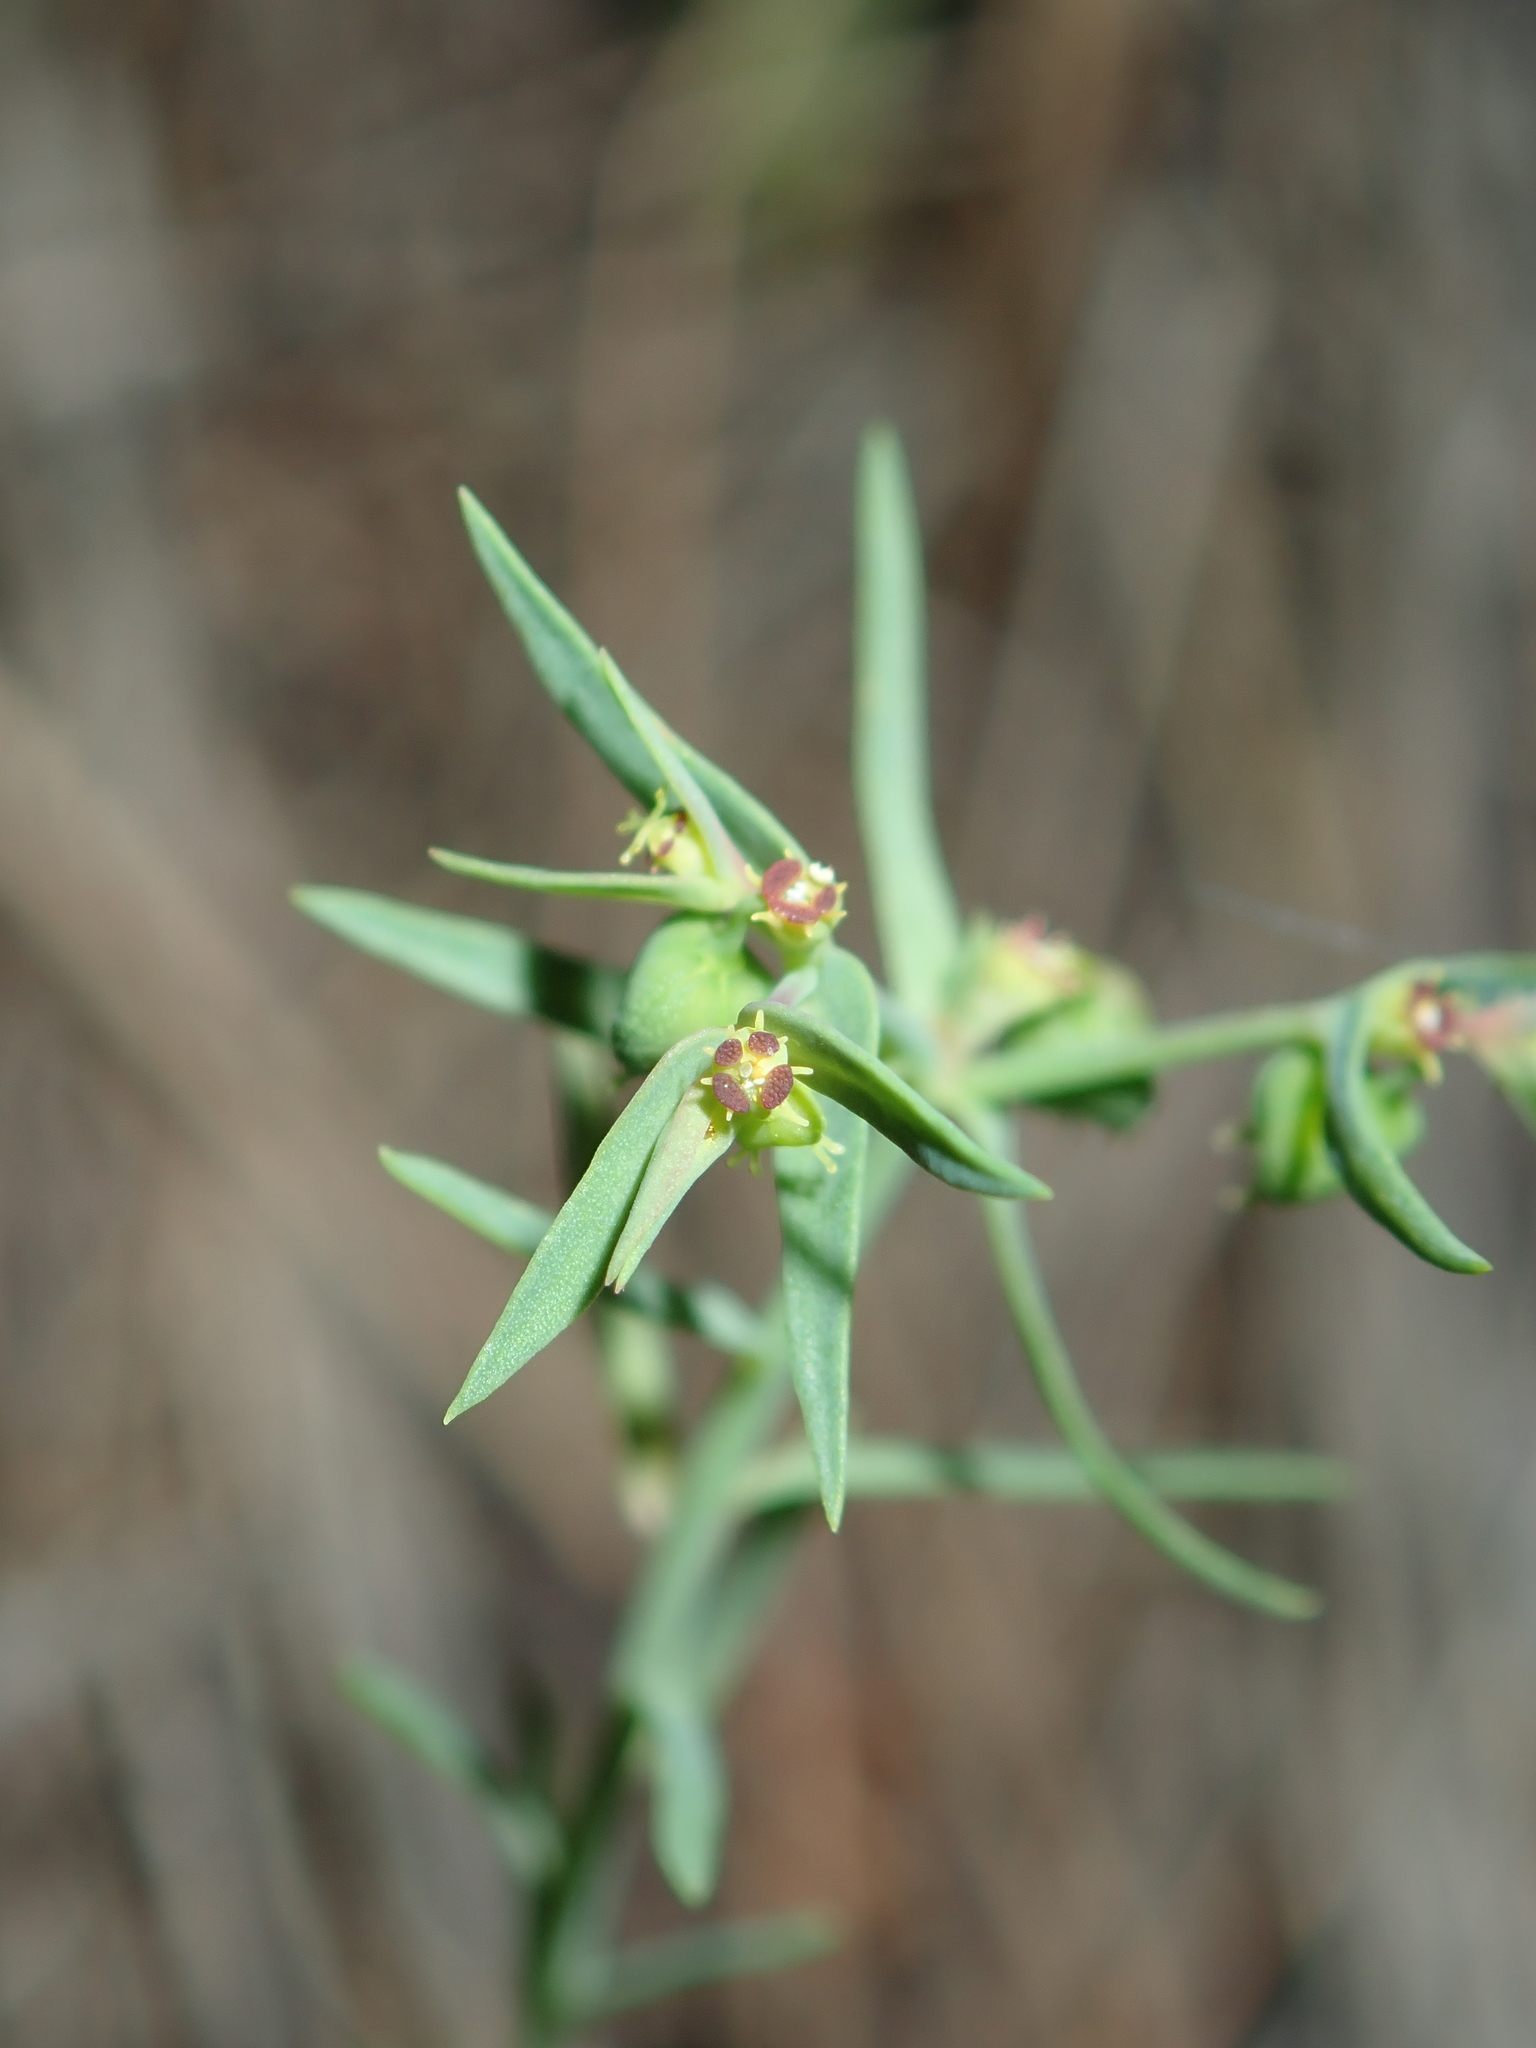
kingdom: Plantae
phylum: Tracheophyta
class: Magnoliopsida
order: Malpighiales
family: Euphorbiaceae
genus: Euphorbia
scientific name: Euphorbia exigua
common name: Dwarf spurge
